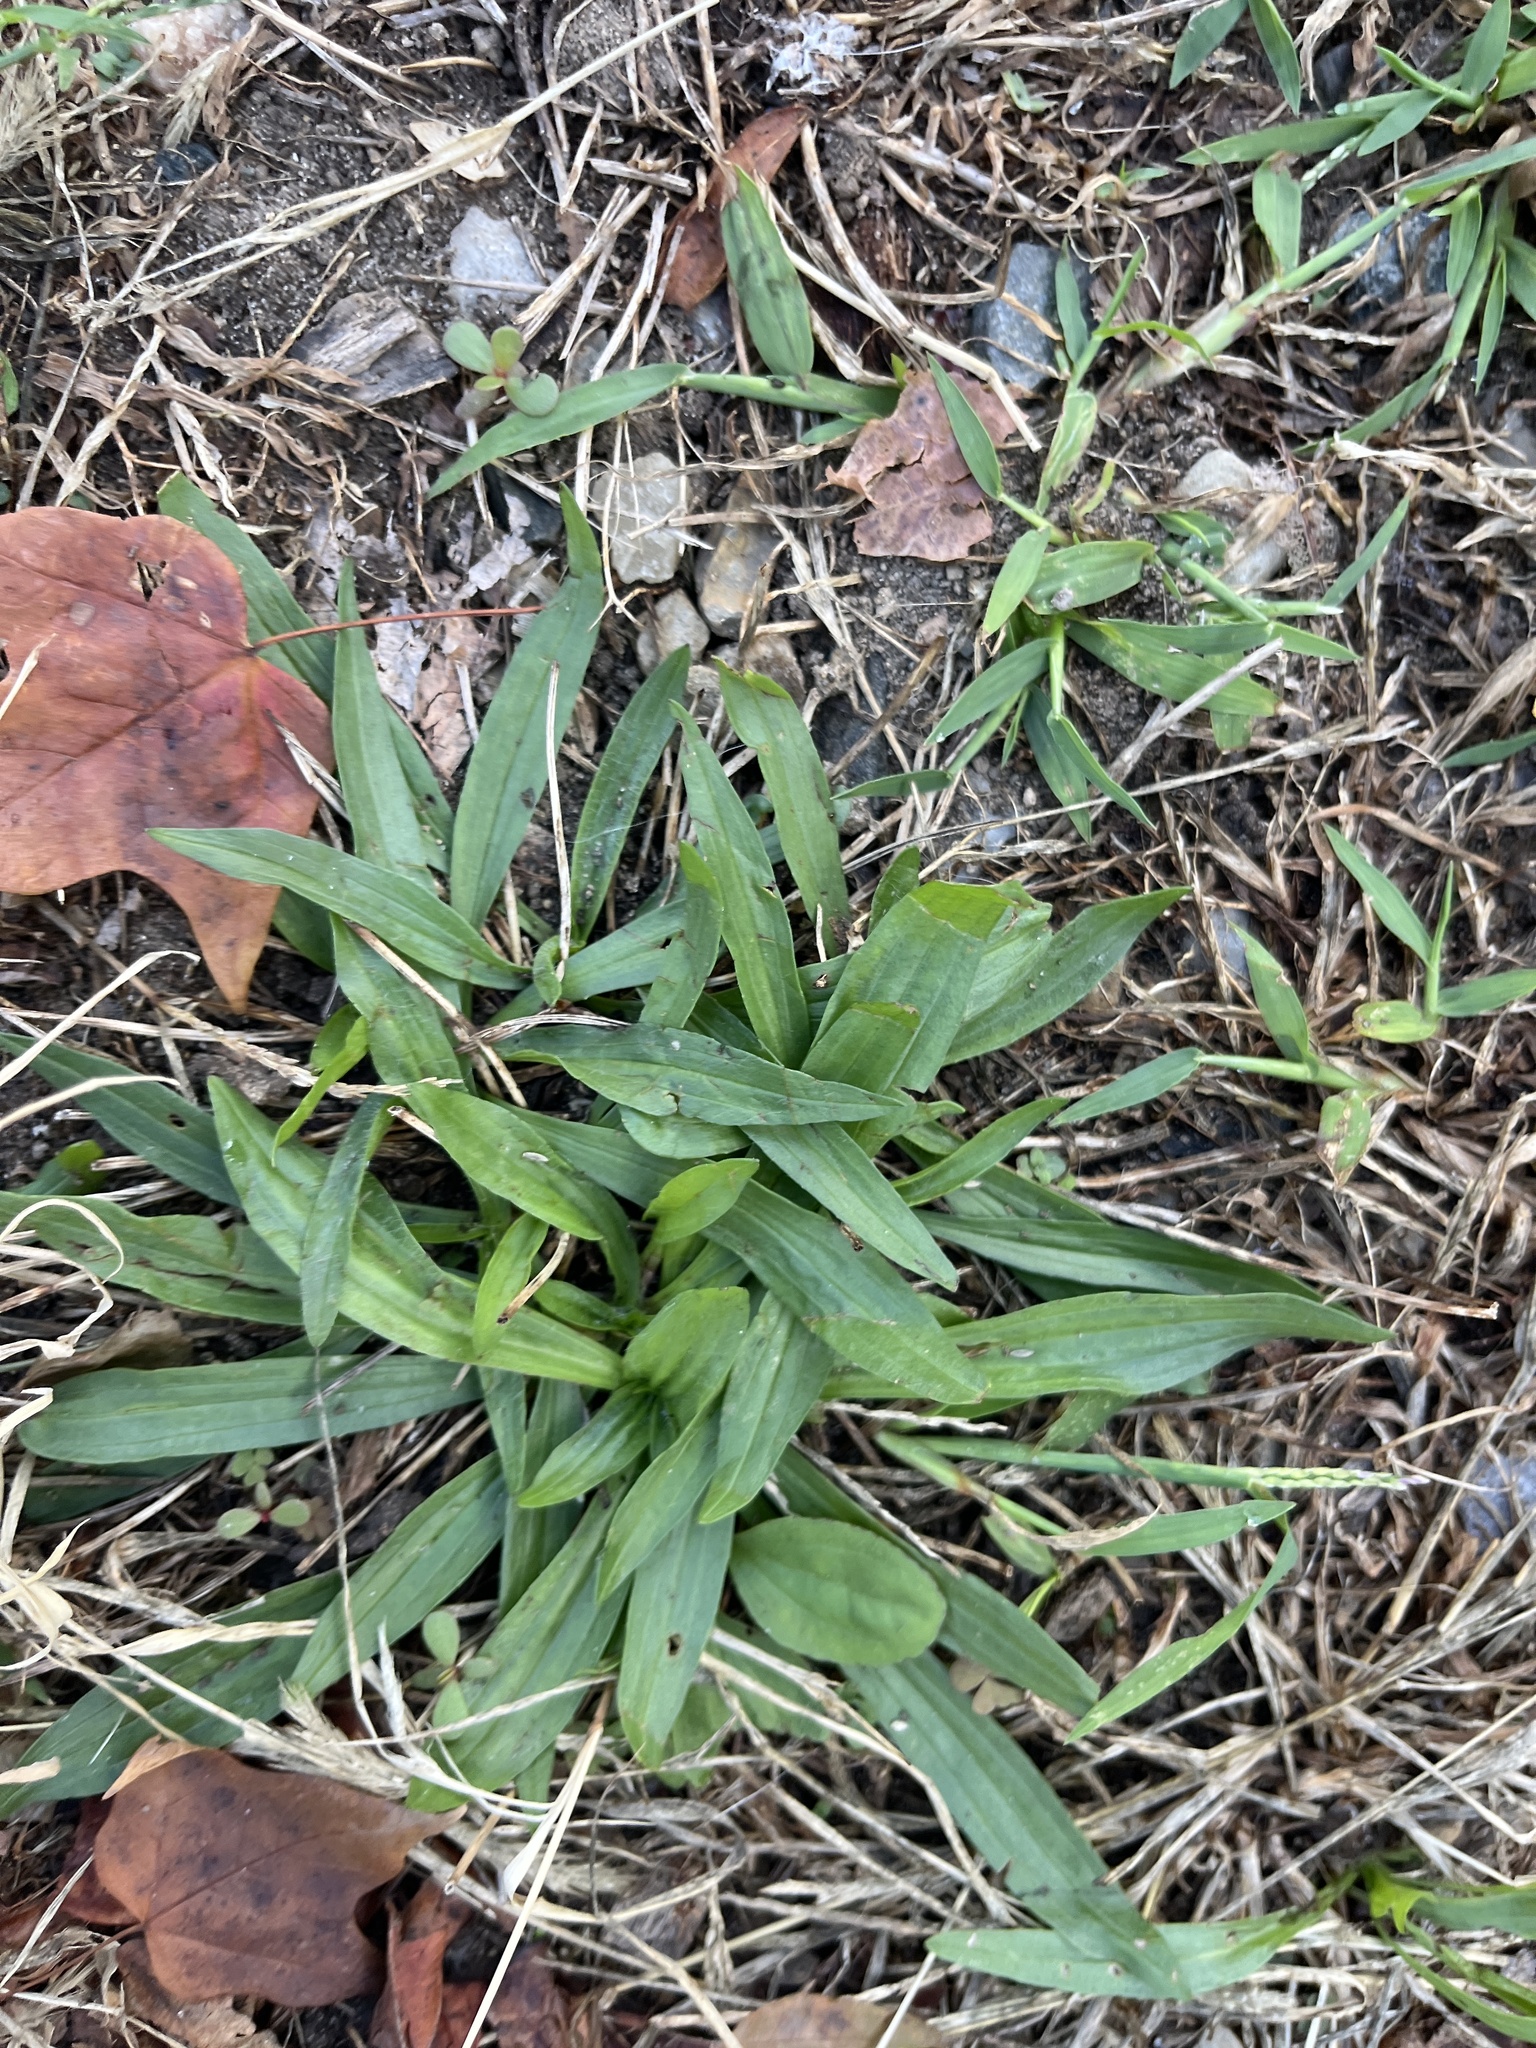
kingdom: Plantae
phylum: Tracheophyta
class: Magnoliopsida
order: Lamiales
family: Plantaginaceae
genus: Plantago
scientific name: Plantago lanceolata
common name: Ribwort plantain
